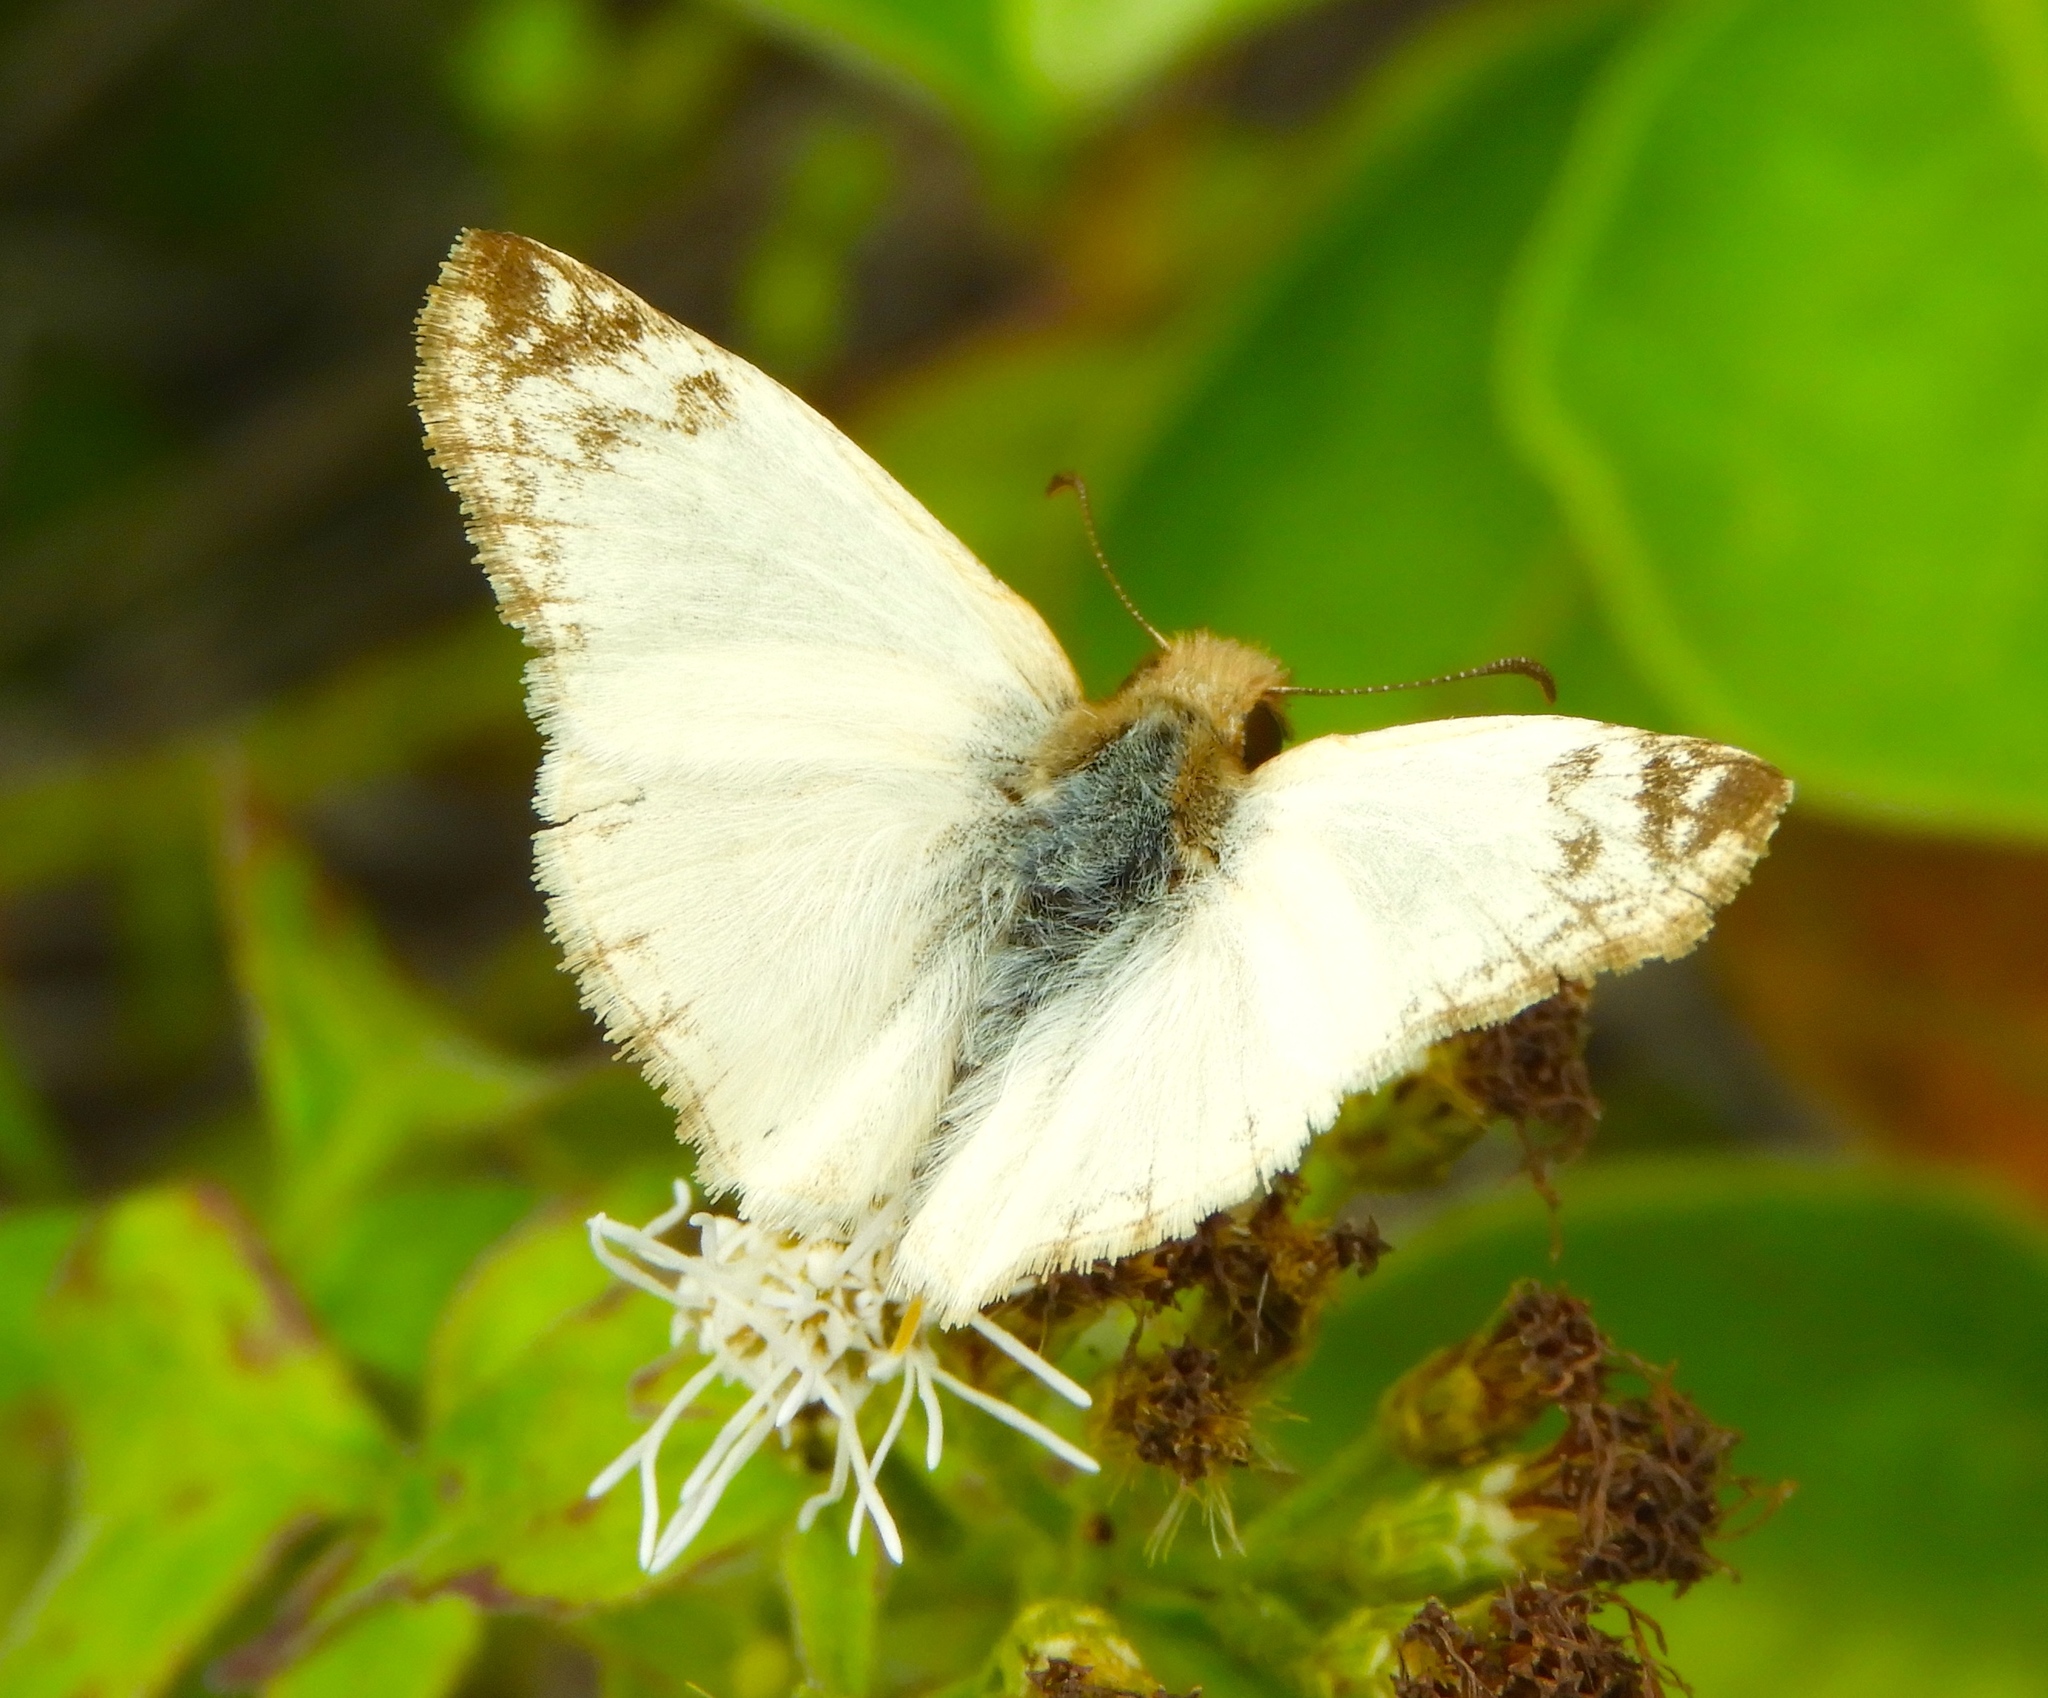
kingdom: Animalia
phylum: Arthropoda
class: Insecta
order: Lepidoptera
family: Hesperiidae
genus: Heliopetes
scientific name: Heliopetes laviana
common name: Laviana white-skipper
